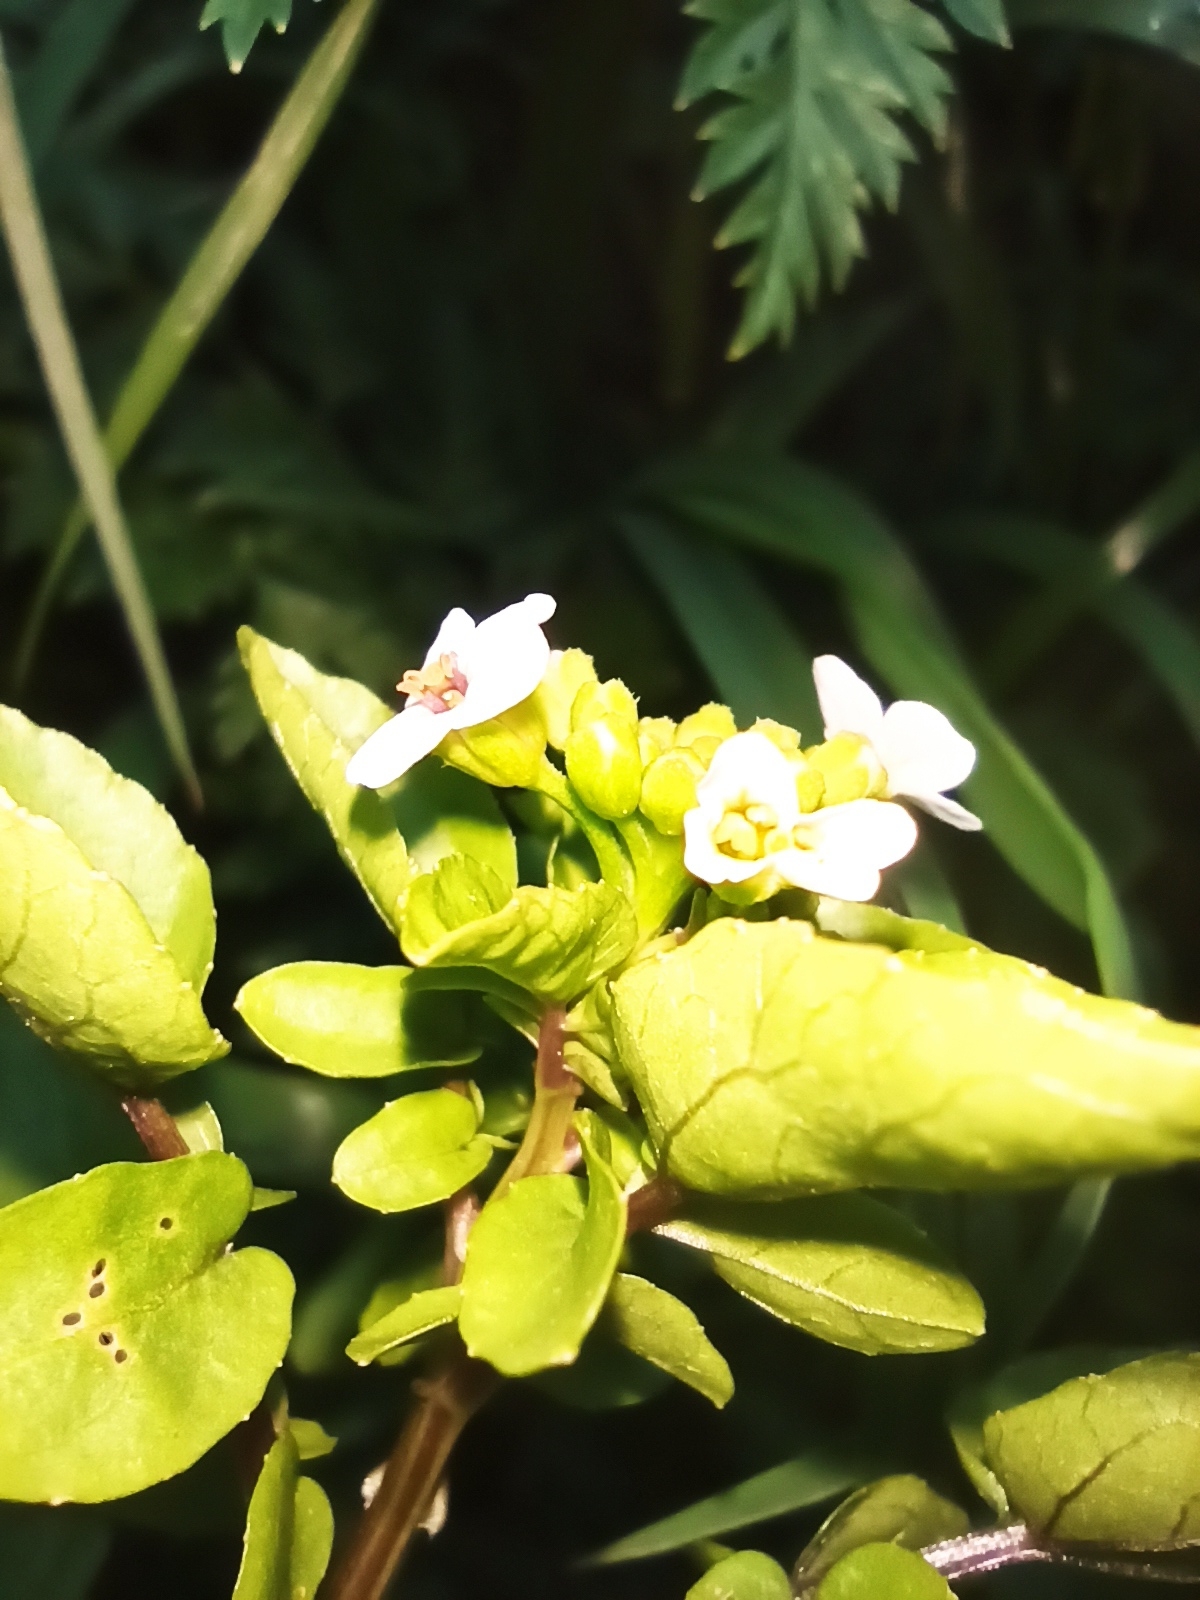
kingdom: Plantae
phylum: Tracheophyta
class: Magnoliopsida
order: Brassicales
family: Brassicaceae
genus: Nasturtium
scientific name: Nasturtium officinale
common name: Watercress
